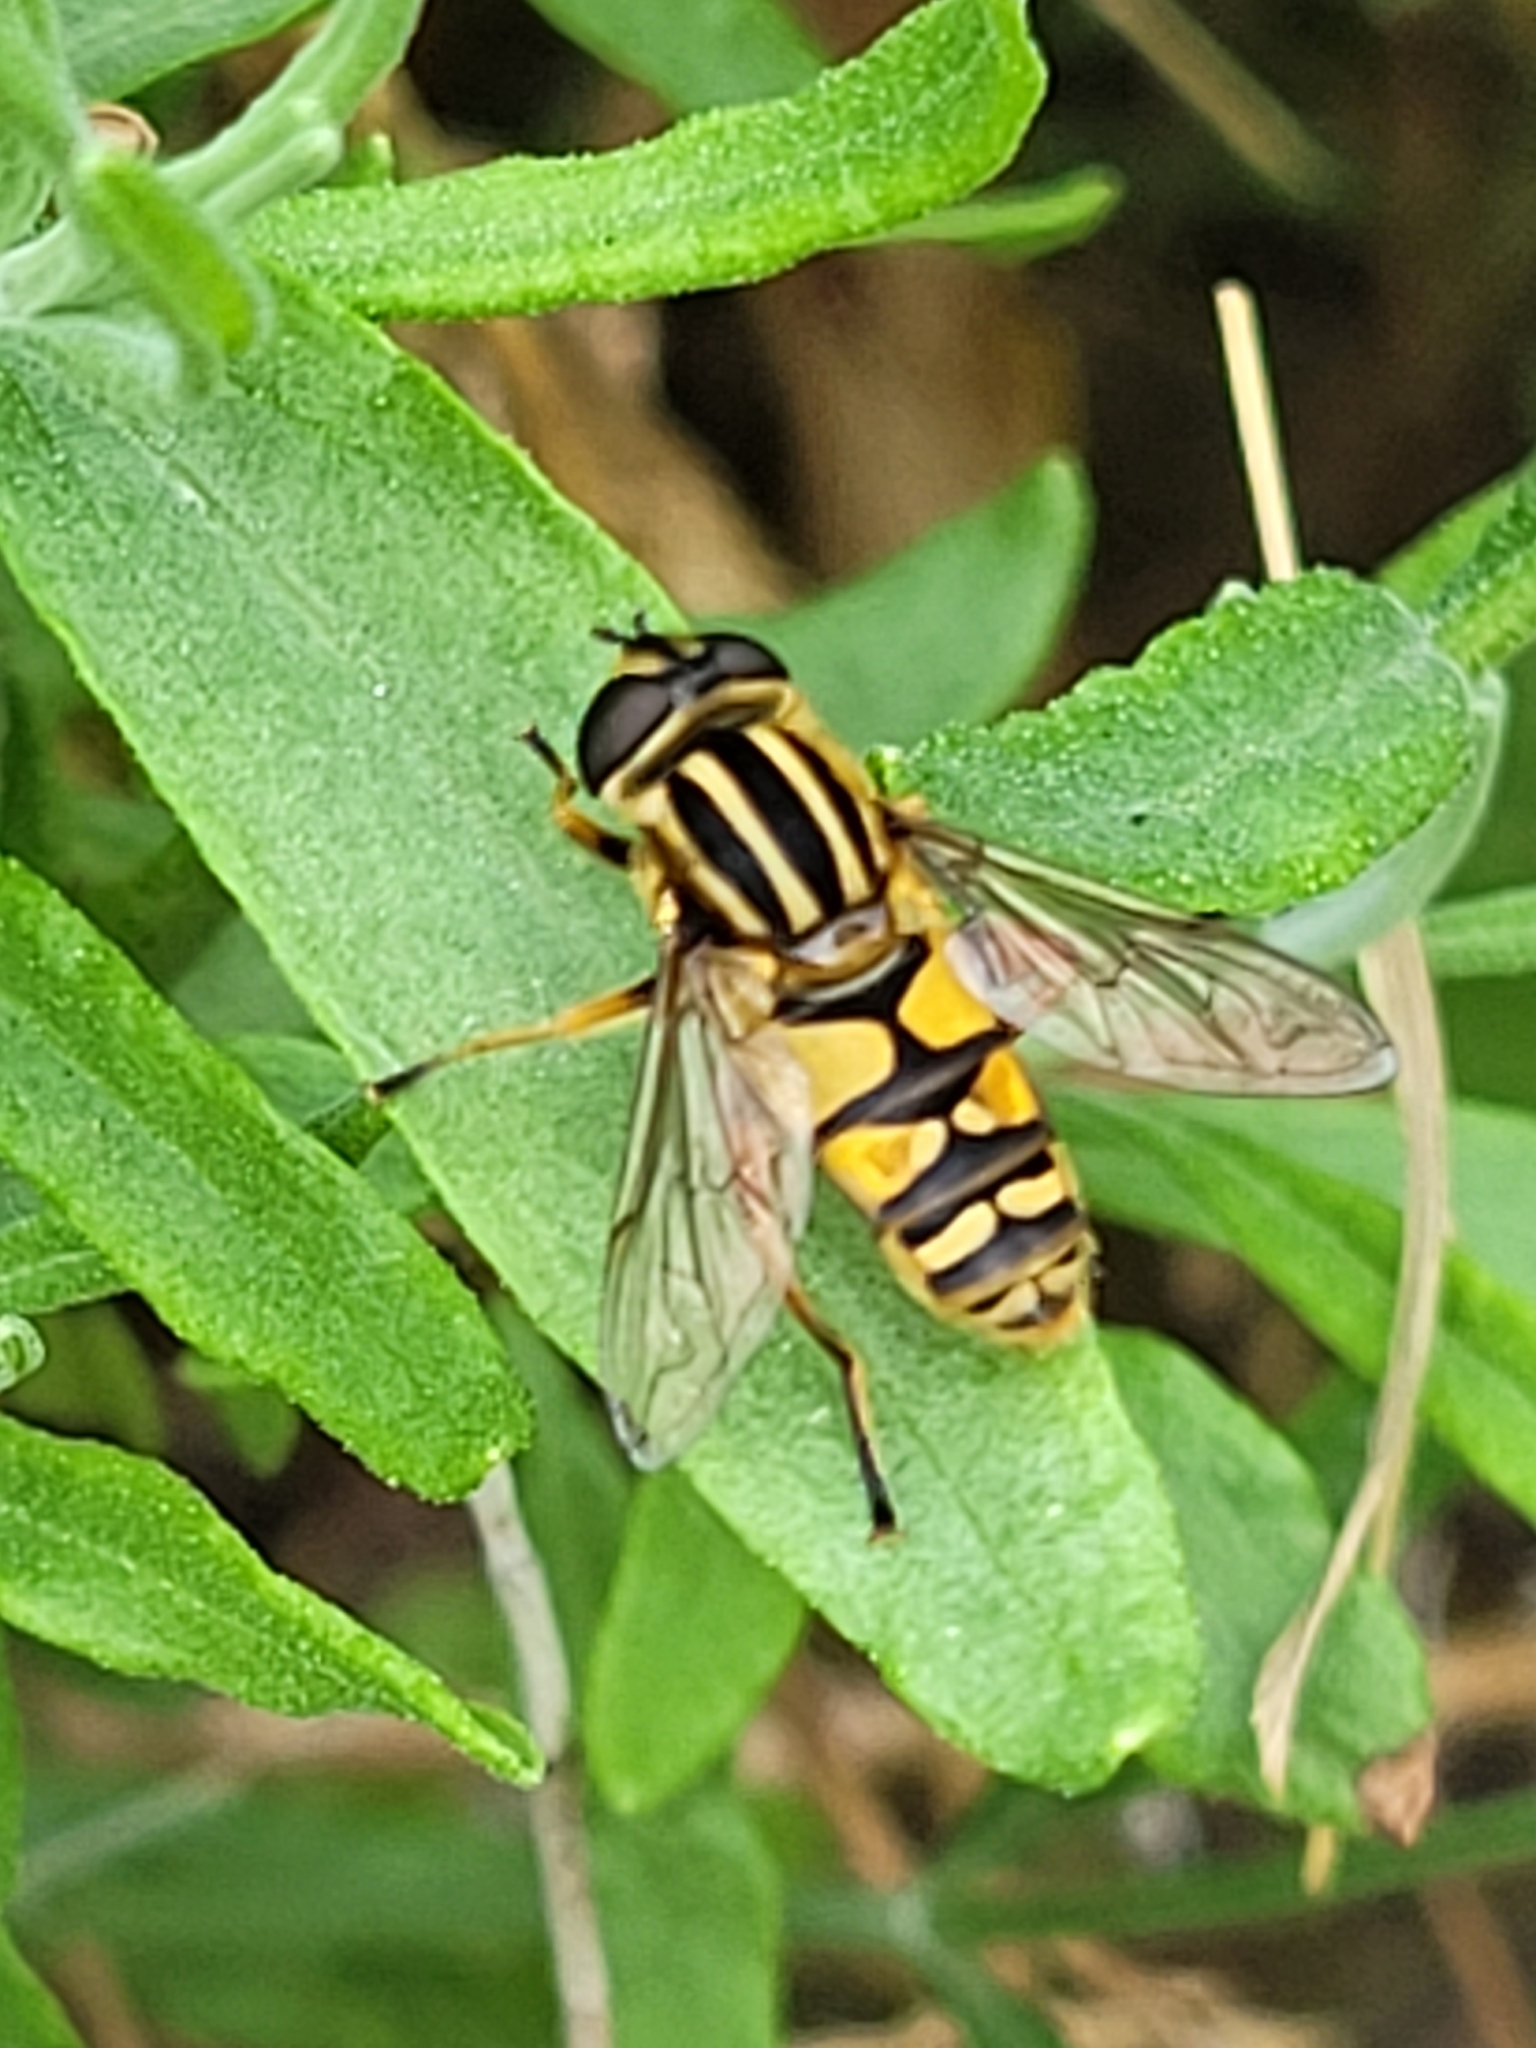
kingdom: Animalia
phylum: Arthropoda
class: Insecta
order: Diptera
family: Syrphidae
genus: Helophilus
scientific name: Helophilus pendulus
